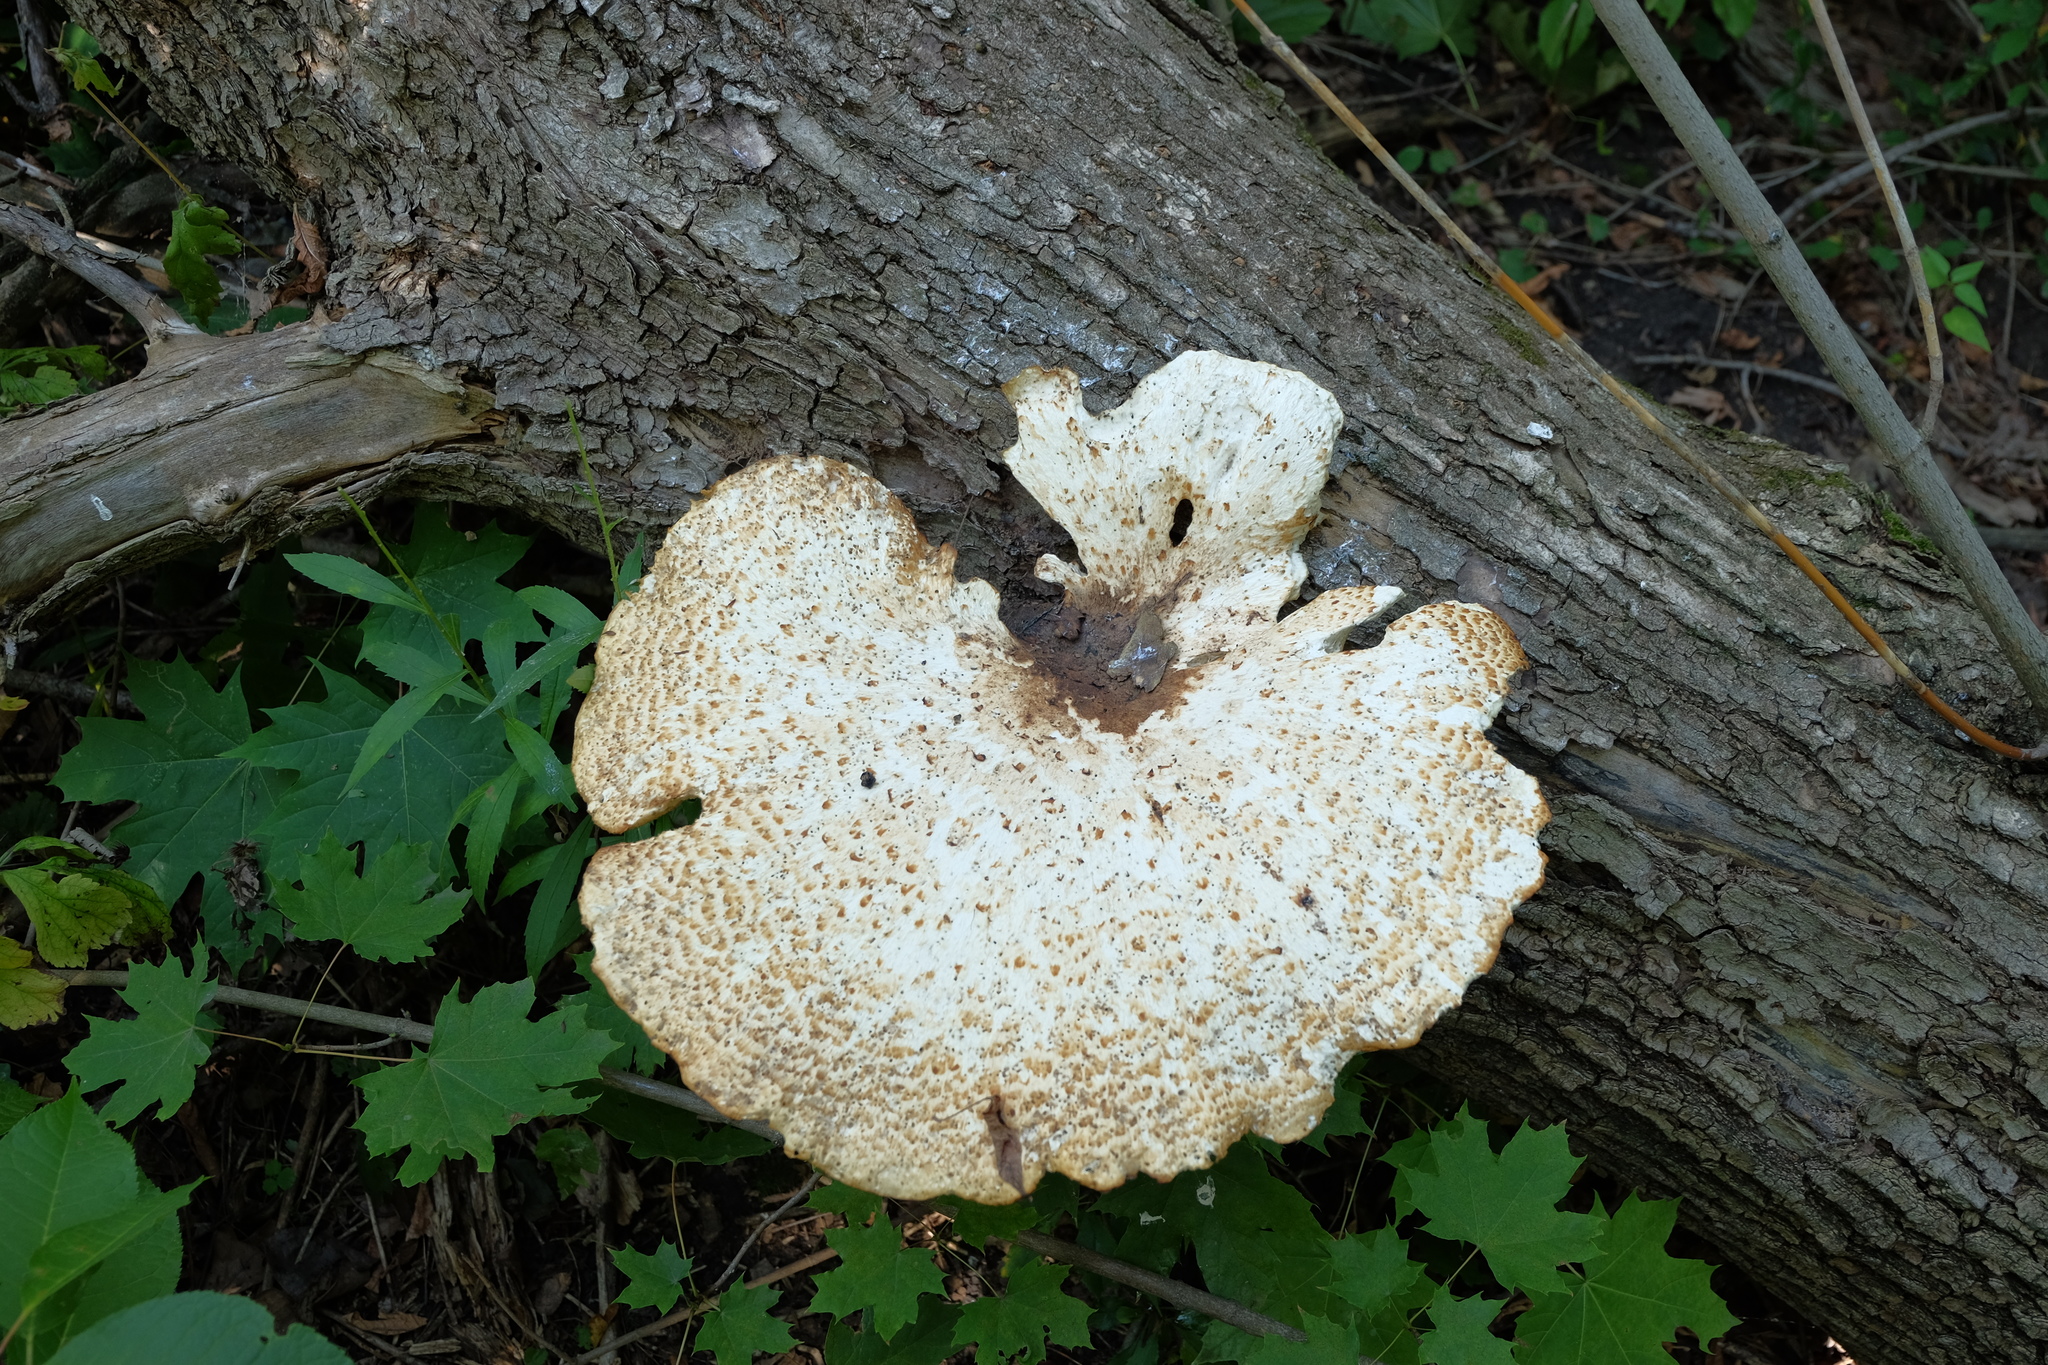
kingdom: Fungi
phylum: Basidiomycota
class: Agaricomycetes
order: Polyporales
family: Polyporaceae
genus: Cerioporus
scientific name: Cerioporus squamosus
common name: Dryad's saddle
